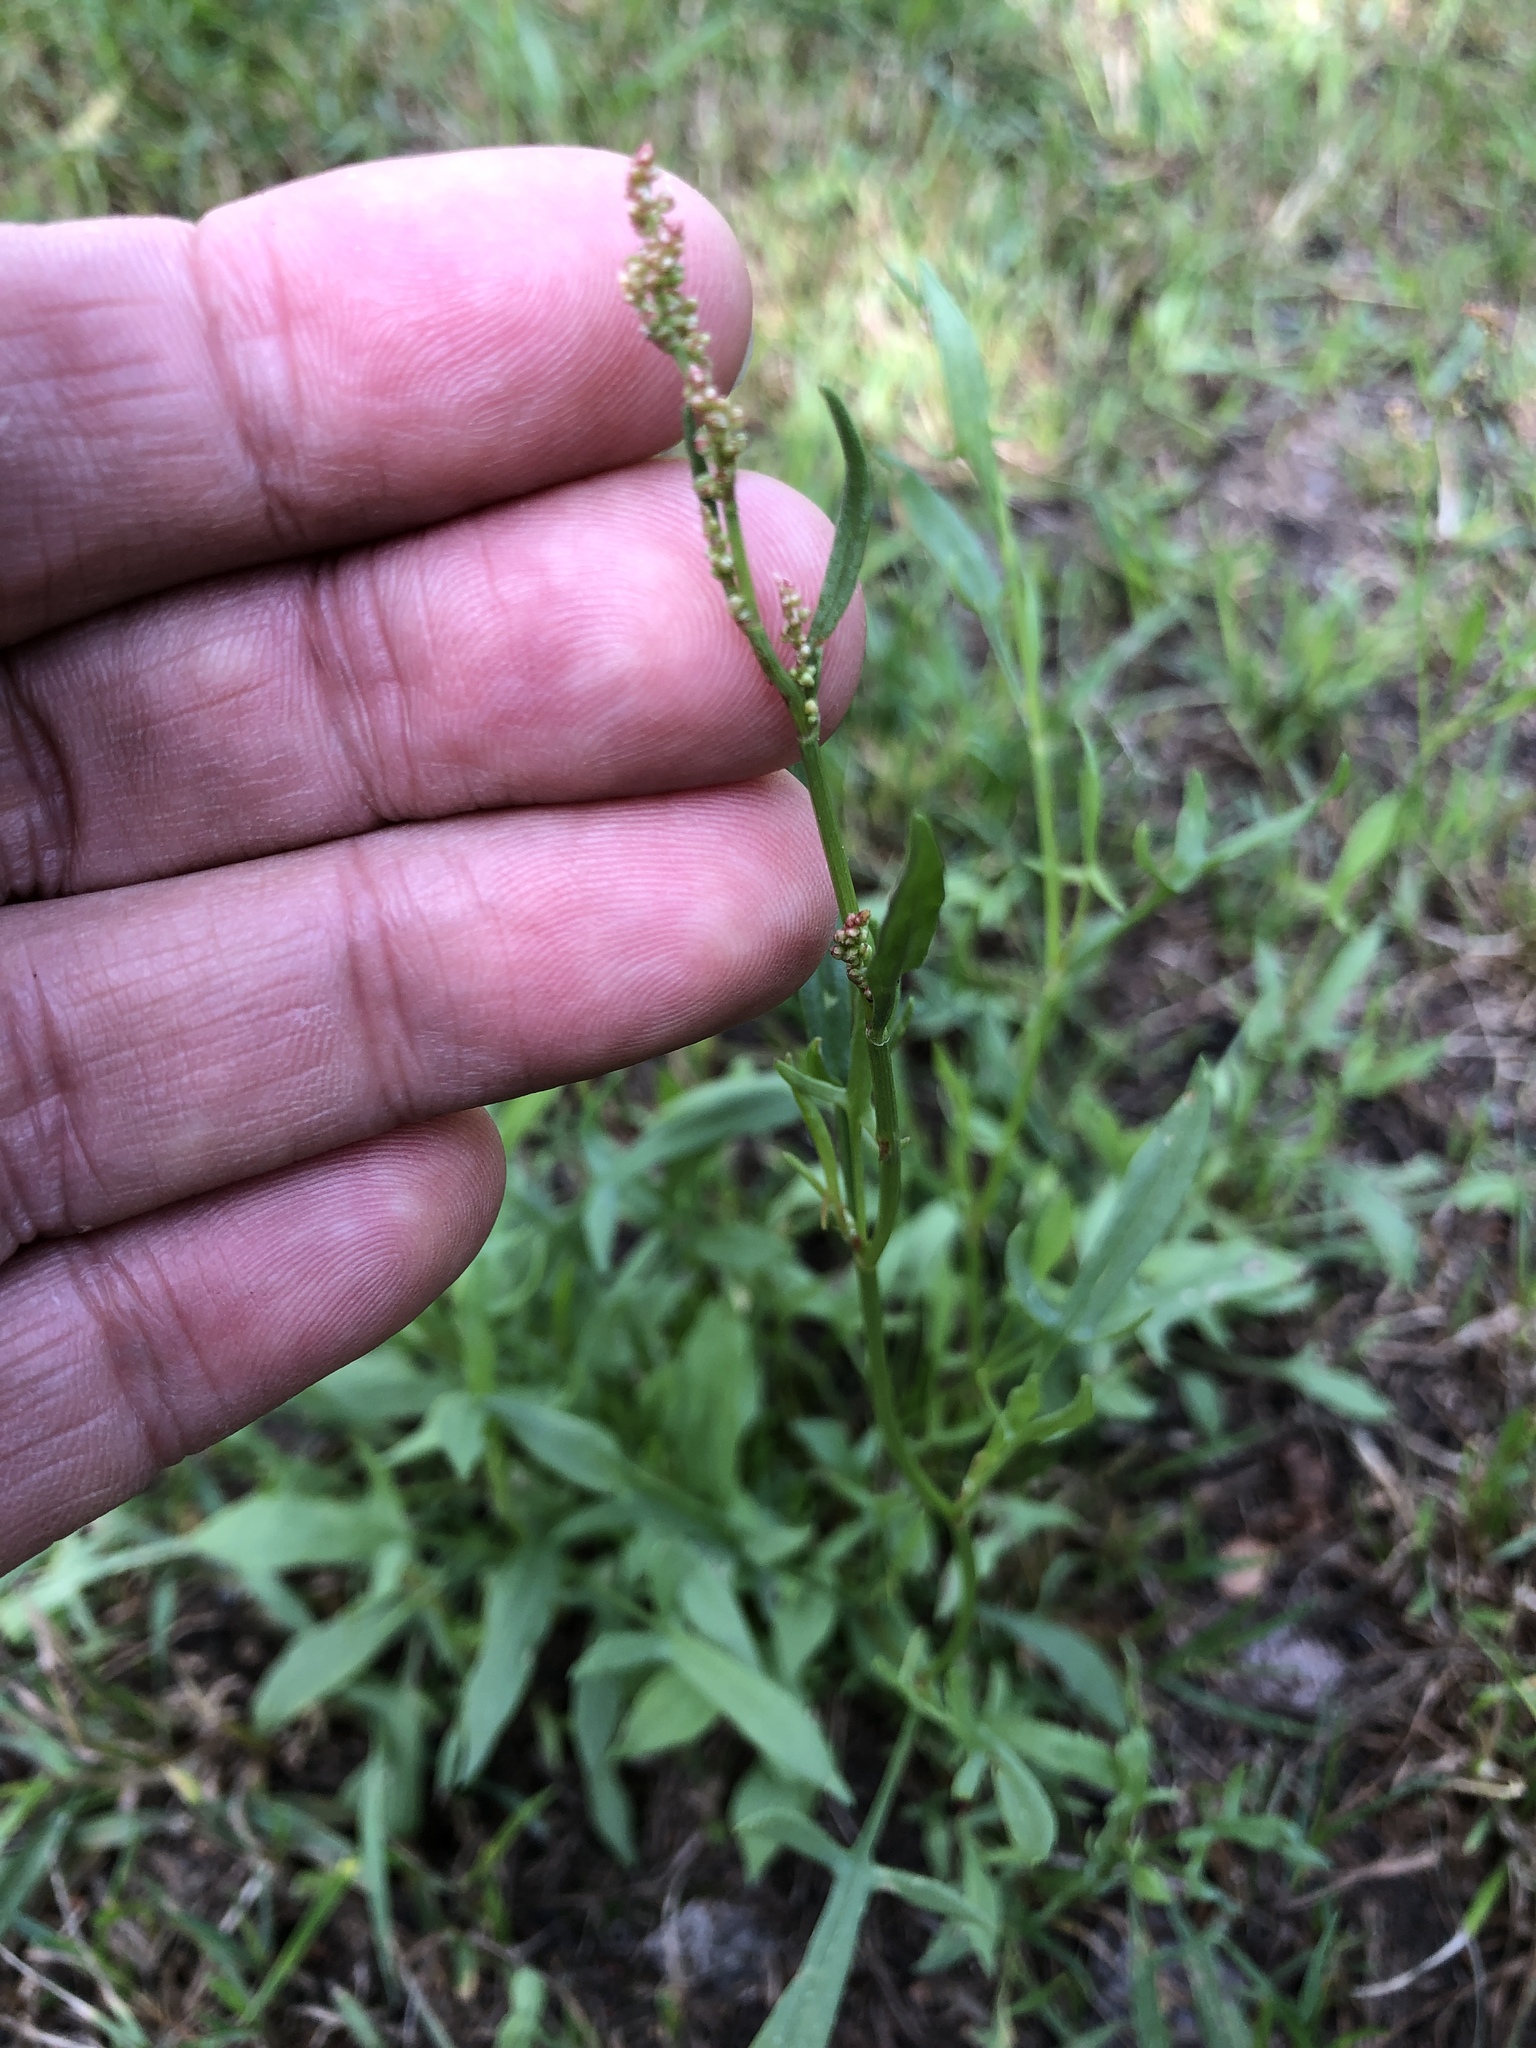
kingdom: Plantae
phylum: Tracheophyta
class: Magnoliopsida
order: Caryophyllales
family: Polygonaceae
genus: Rumex
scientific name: Rumex acetosella
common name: Common sheep sorrel
